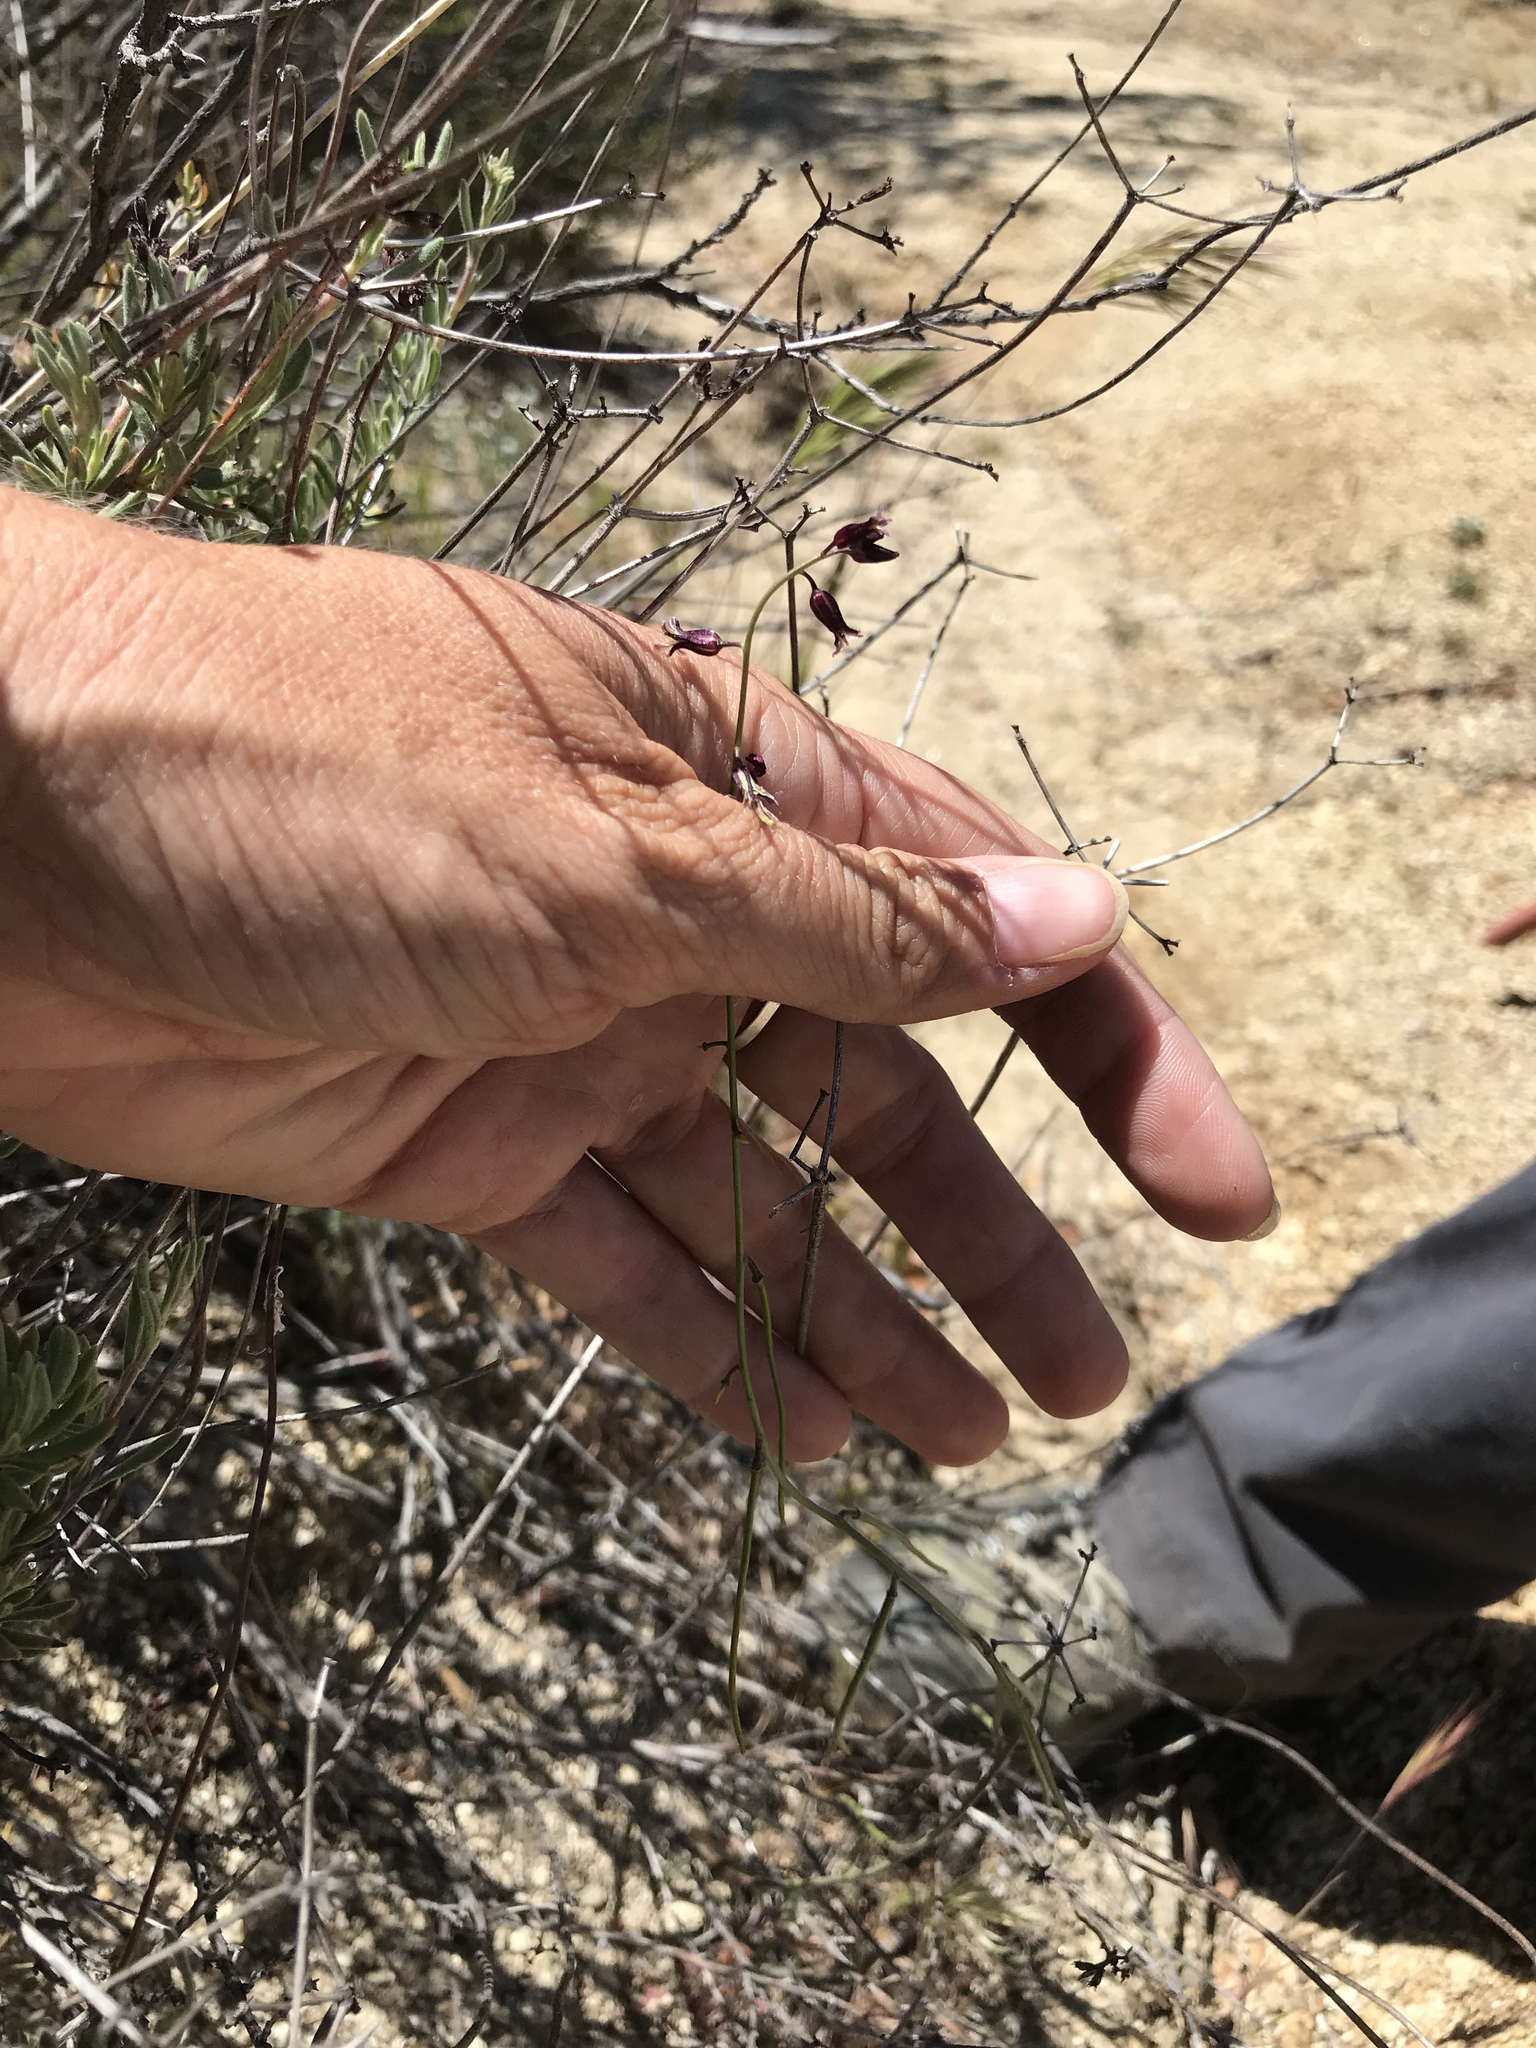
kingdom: Plantae
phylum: Tracheophyta
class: Magnoliopsida
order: Brassicales
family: Brassicaceae
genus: Streptanthus
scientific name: Streptanthus heterophyllus
